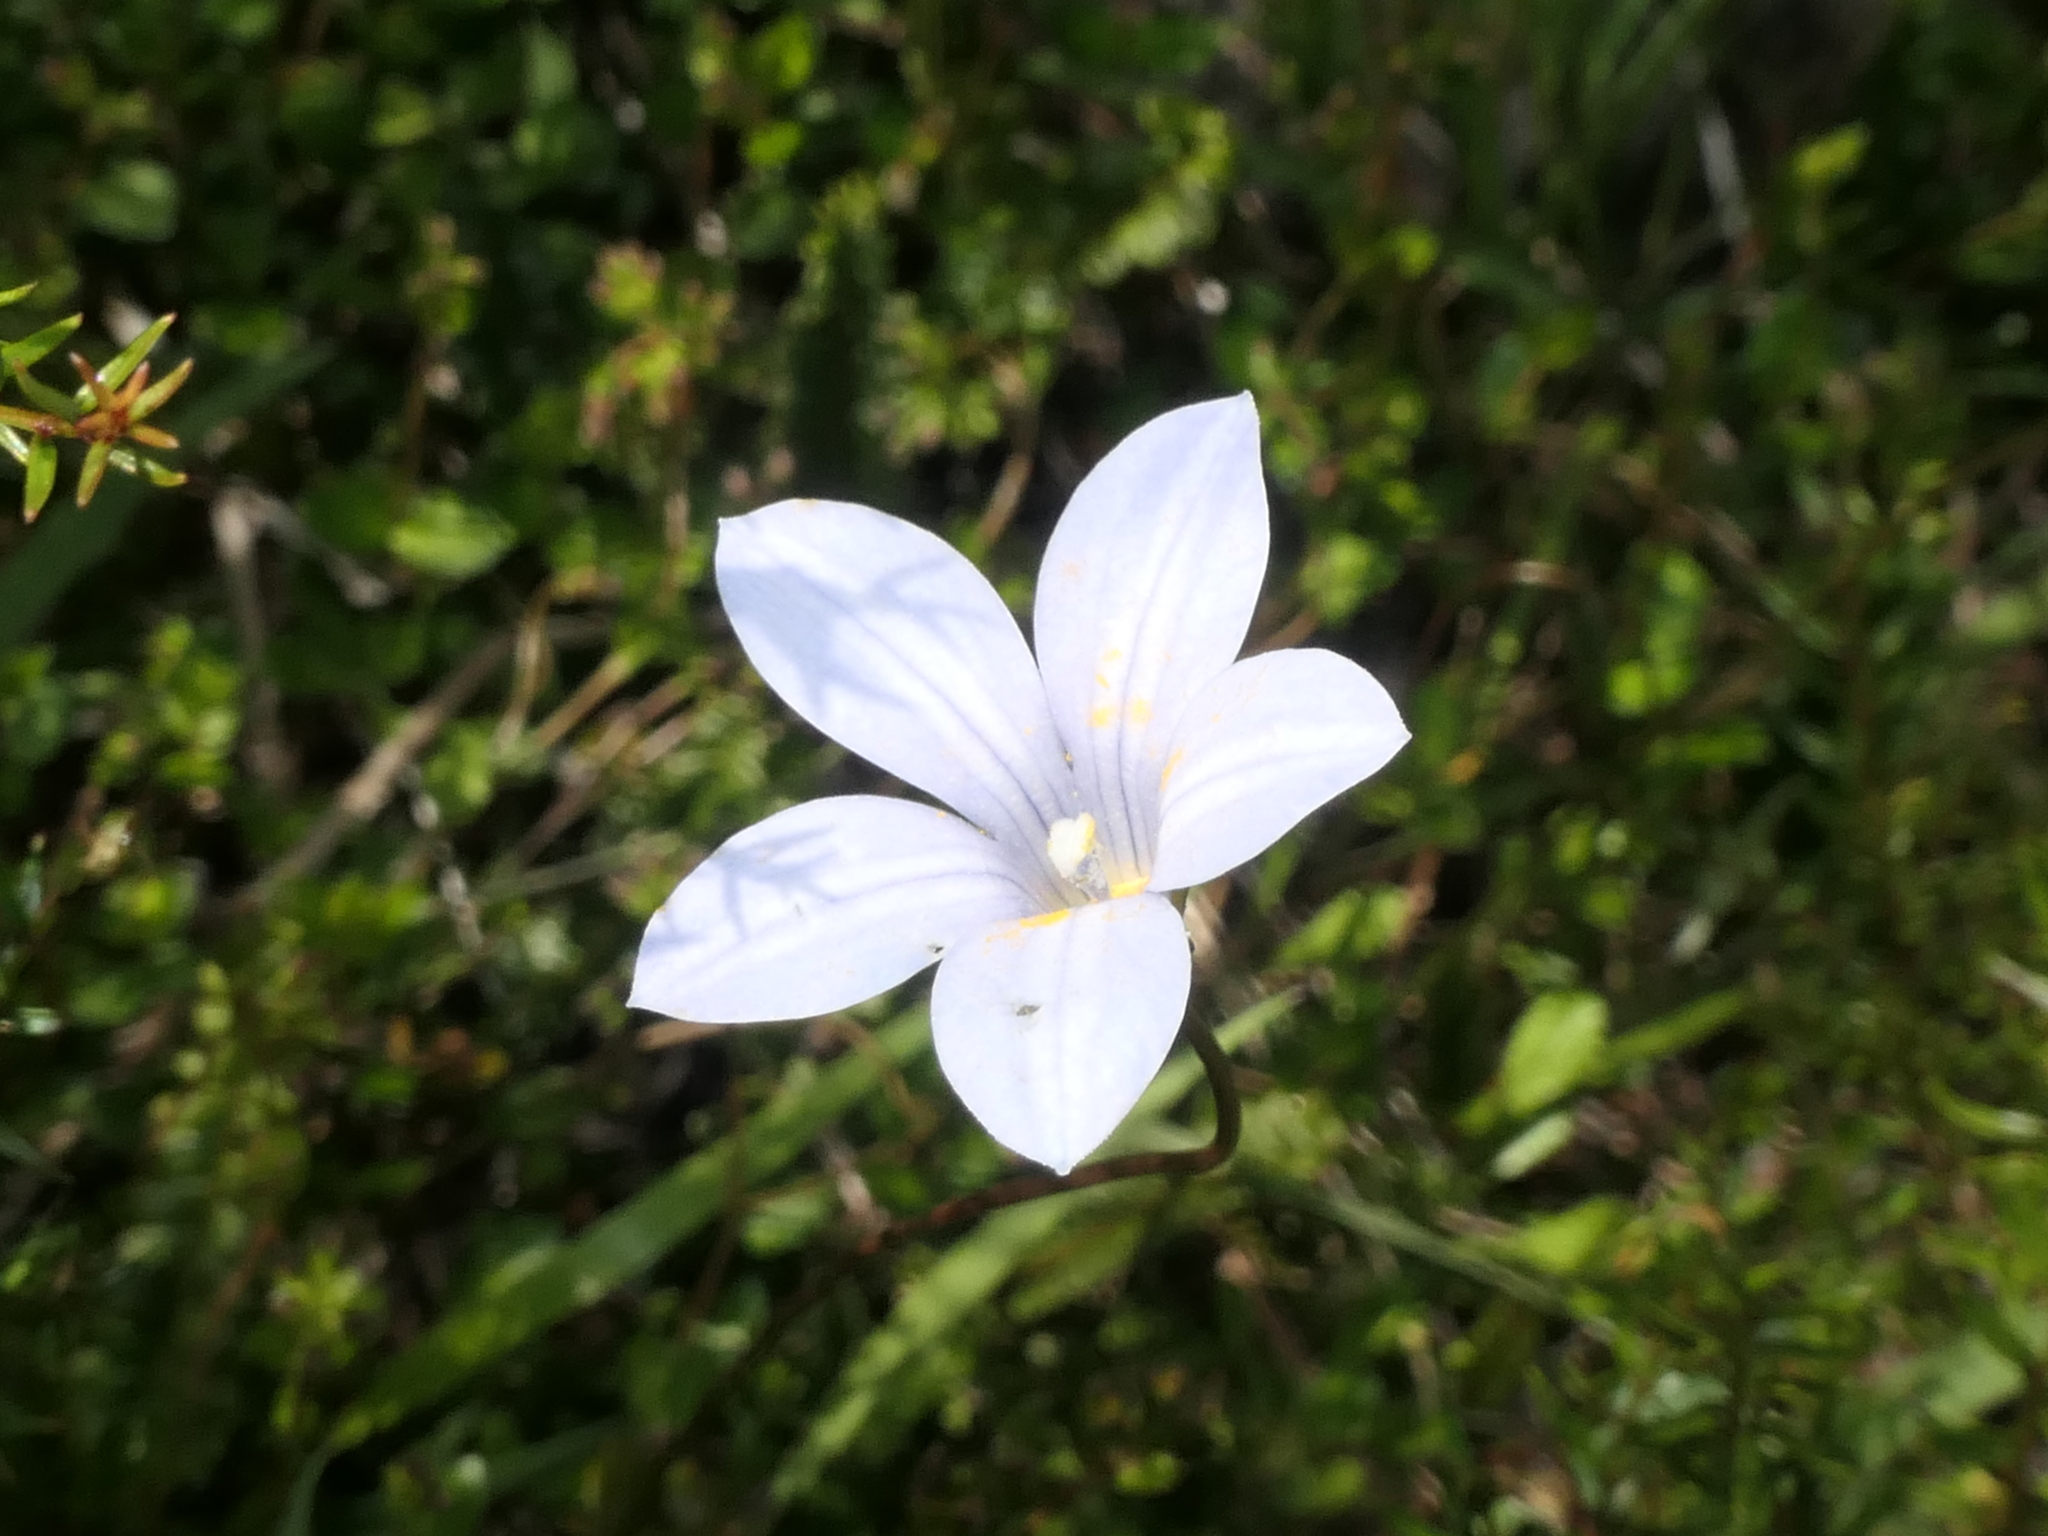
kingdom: Plantae
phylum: Tracheophyta
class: Magnoliopsida
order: Asterales
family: Campanulaceae
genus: Wahlenbergia
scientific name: Wahlenbergia albomarginata
